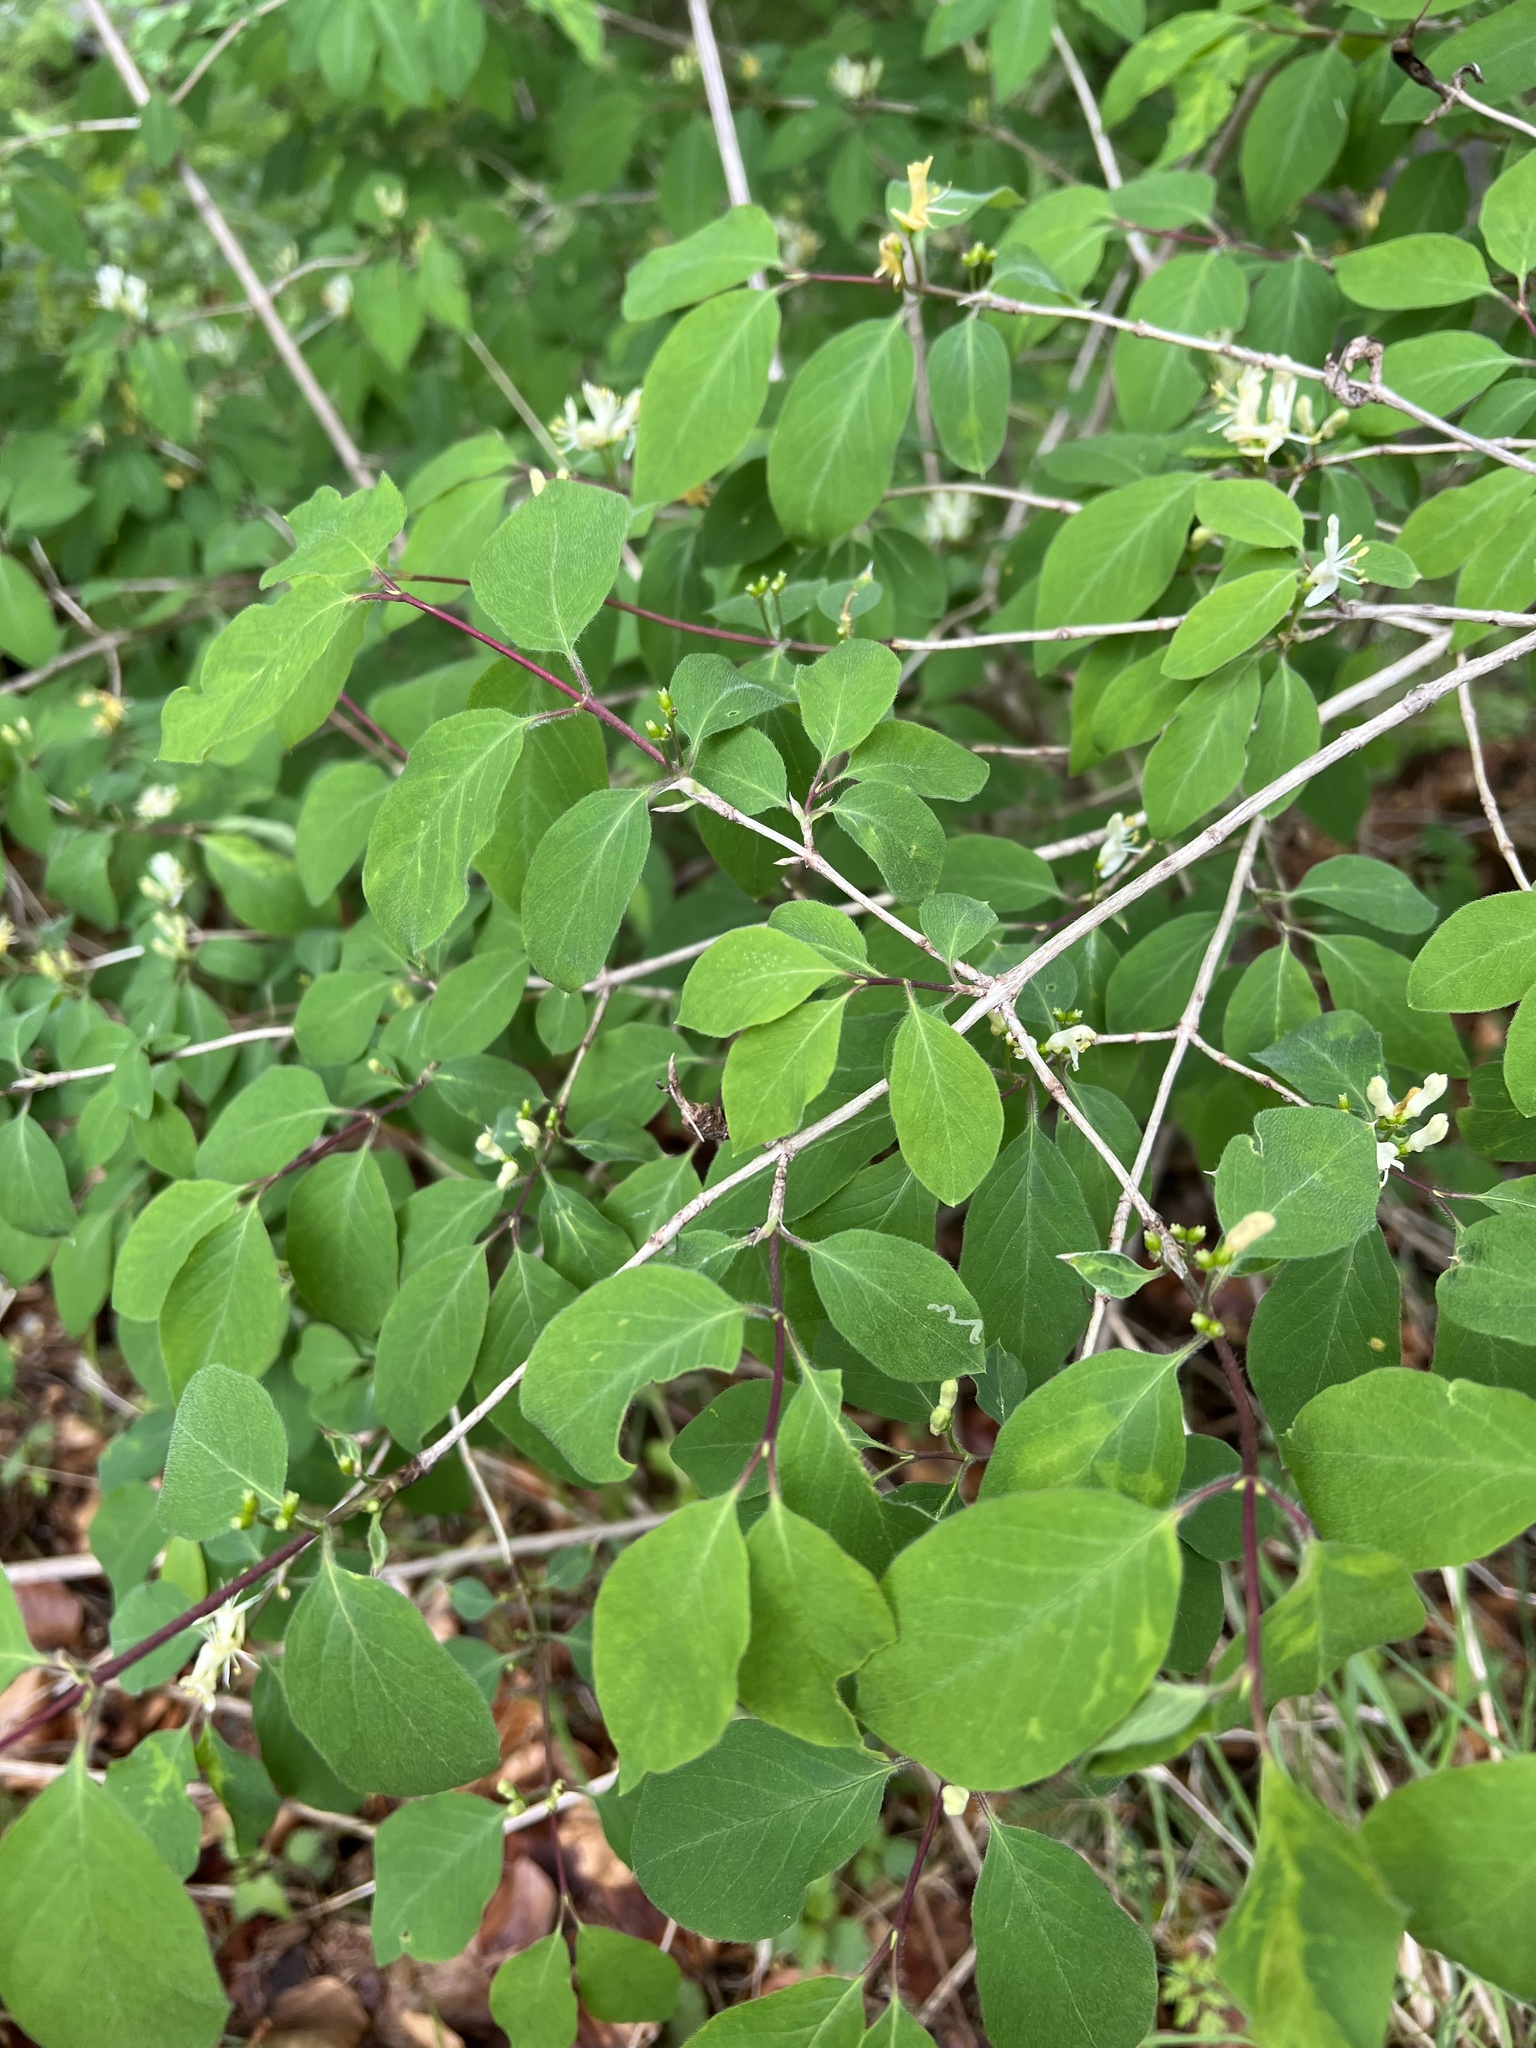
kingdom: Plantae
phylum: Tracheophyta
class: Magnoliopsida
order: Dipsacales
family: Caprifoliaceae
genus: Lonicera
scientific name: Lonicera xylosteum
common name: Fly honeysuckle
